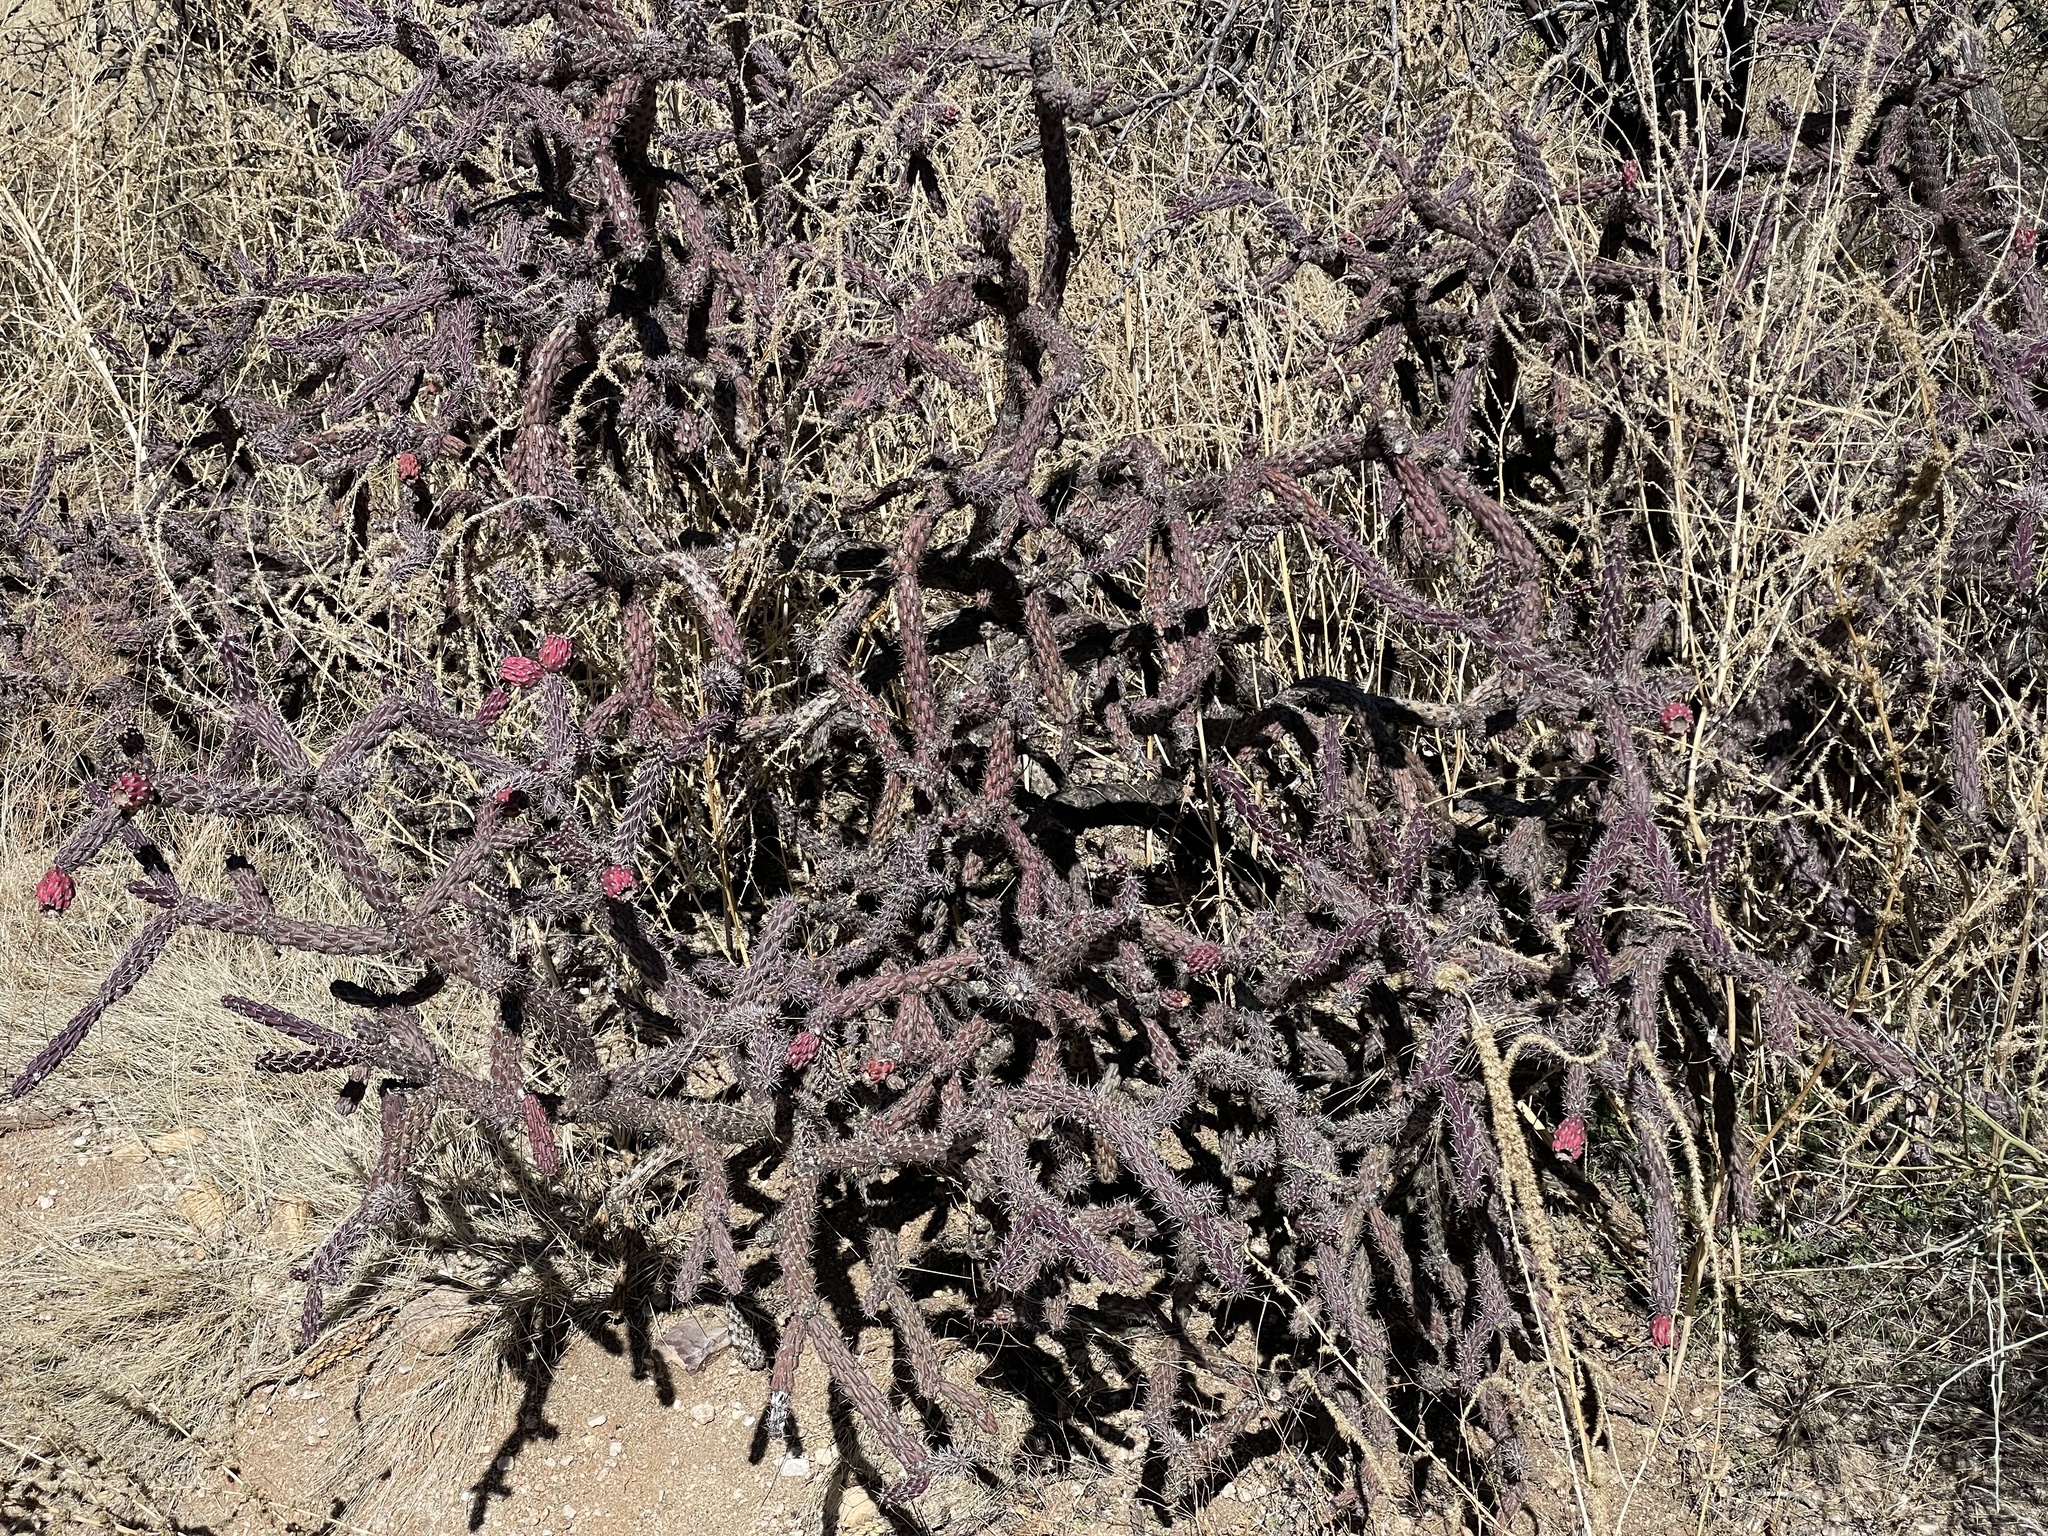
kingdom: Plantae
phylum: Tracheophyta
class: Magnoliopsida
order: Caryophyllales
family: Cactaceae
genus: Cylindropuntia
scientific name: Cylindropuntia thurberi
